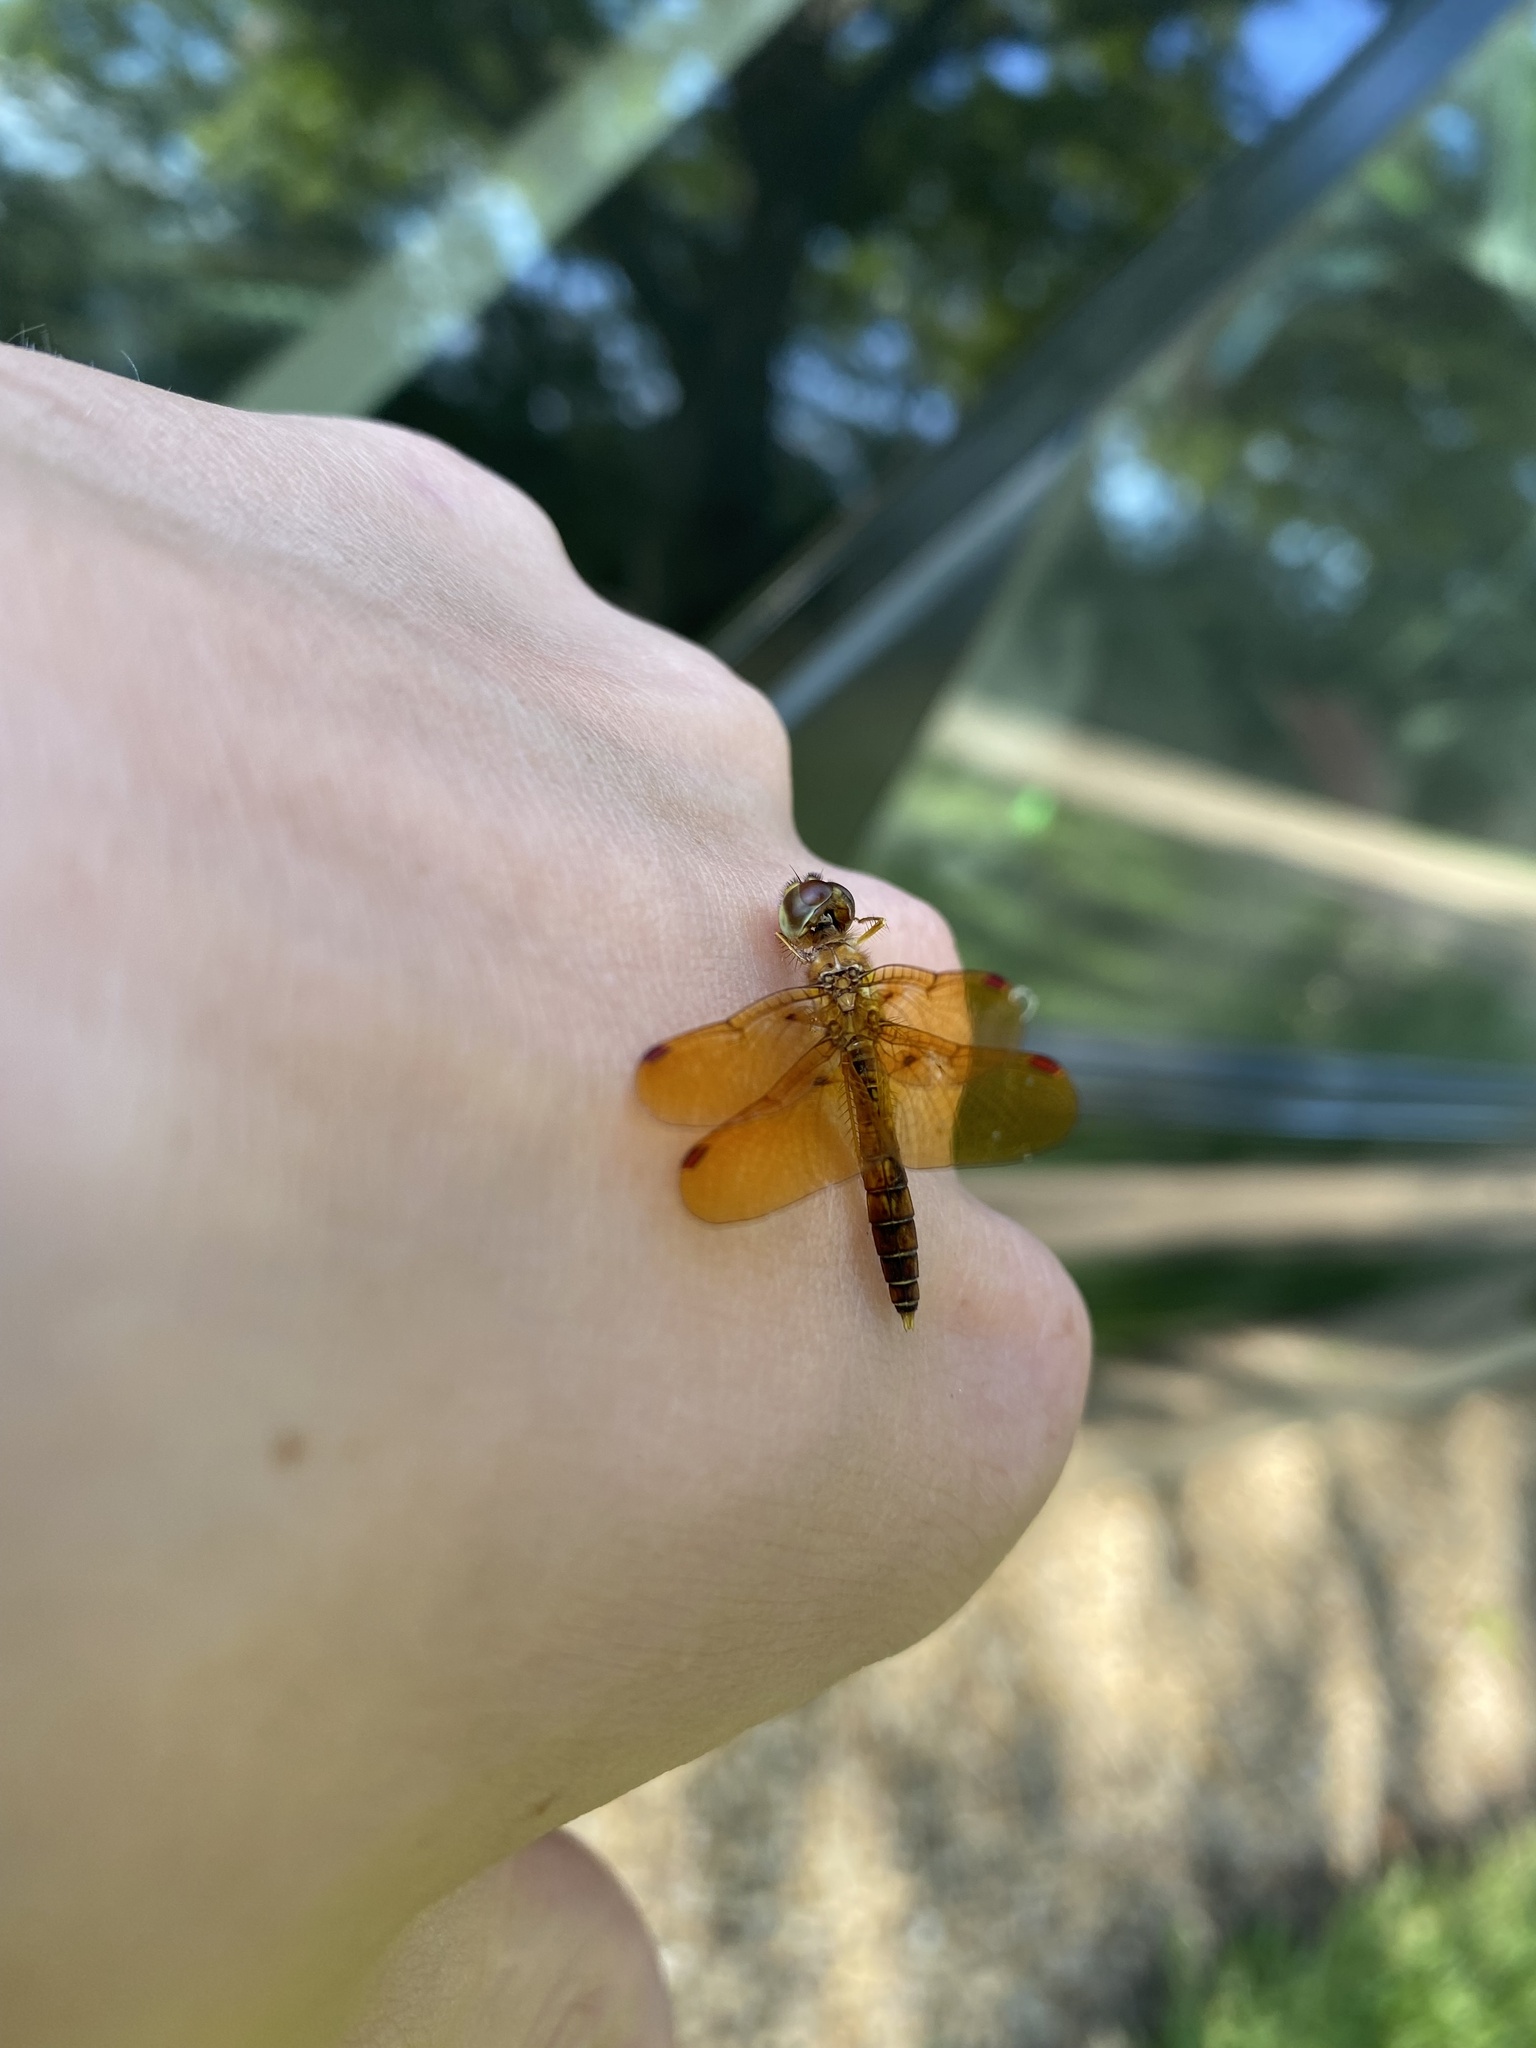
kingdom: Animalia
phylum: Arthropoda
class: Insecta
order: Odonata
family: Libellulidae
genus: Perithemis
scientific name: Perithemis tenera
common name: Eastern amberwing
